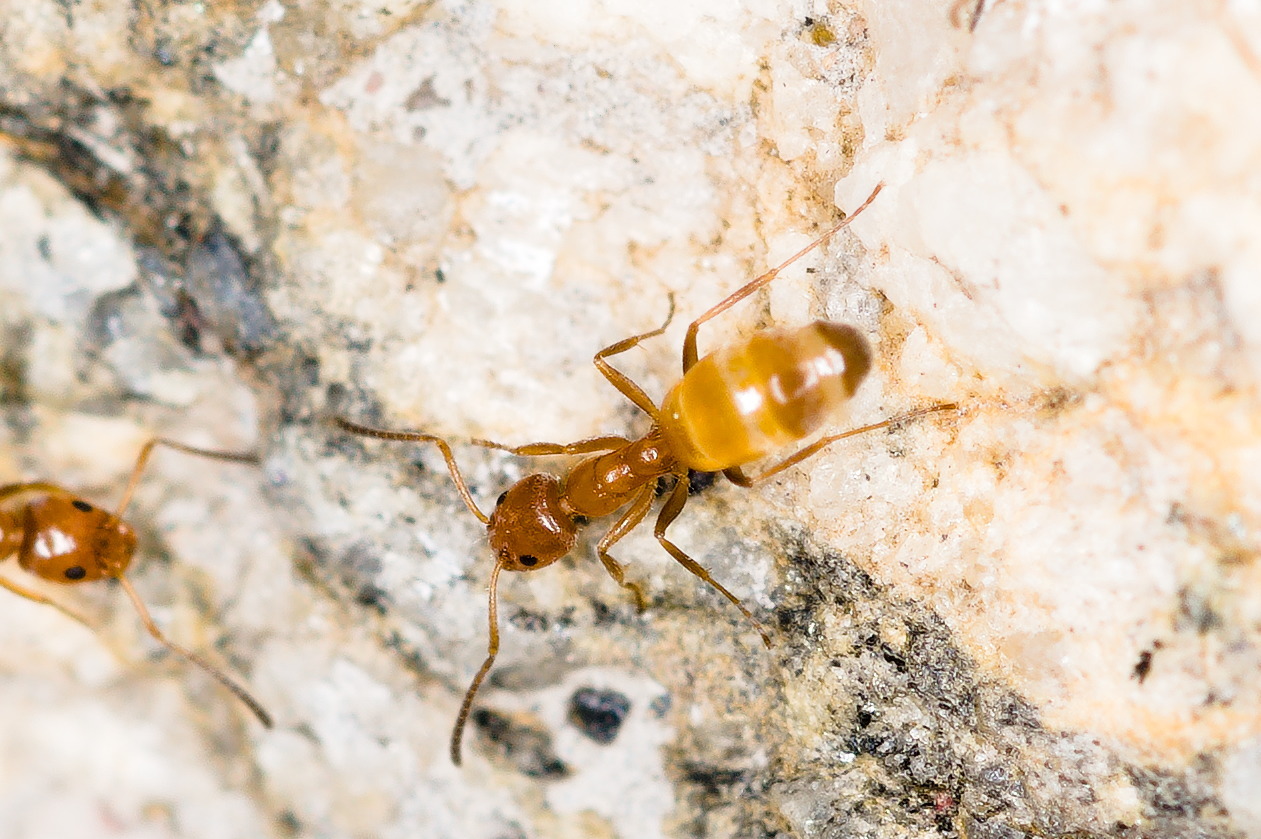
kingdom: Animalia
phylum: Arthropoda
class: Insecta
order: Hymenoptera
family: Formicidae
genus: Forelius
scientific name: Forelius mccooki
